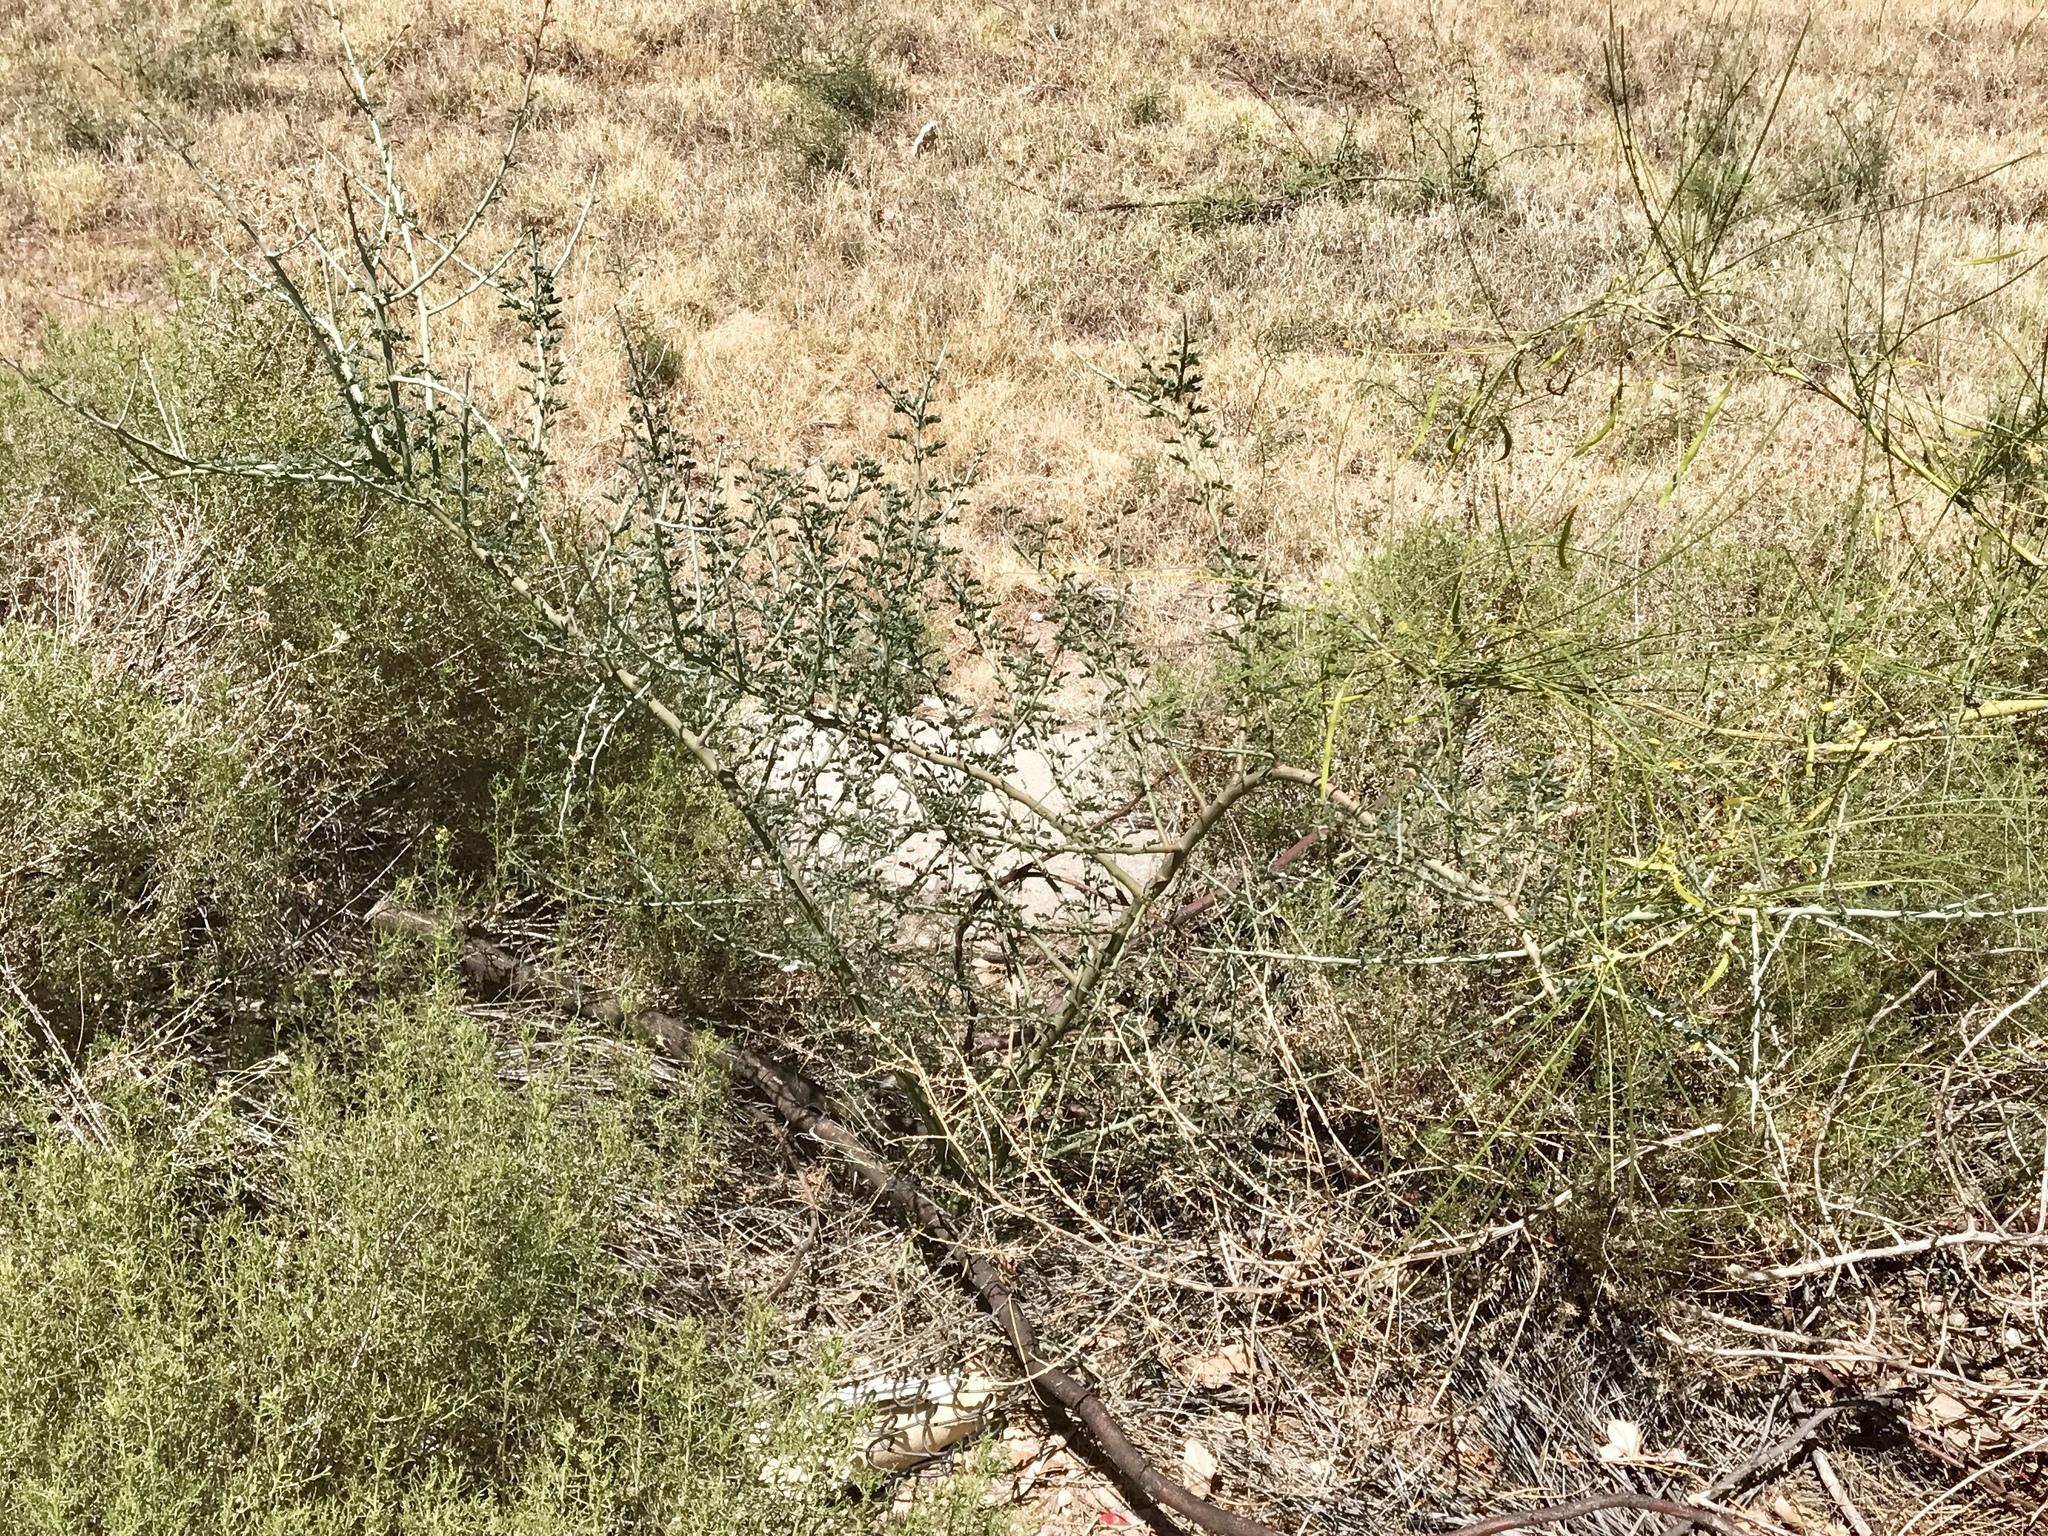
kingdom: Plantae
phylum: Tracheophyta
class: Magnoliopsida
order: Fabales
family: Fabaceae
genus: Parkinsonia
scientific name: Parkinsonia florida
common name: Blue paloverde
